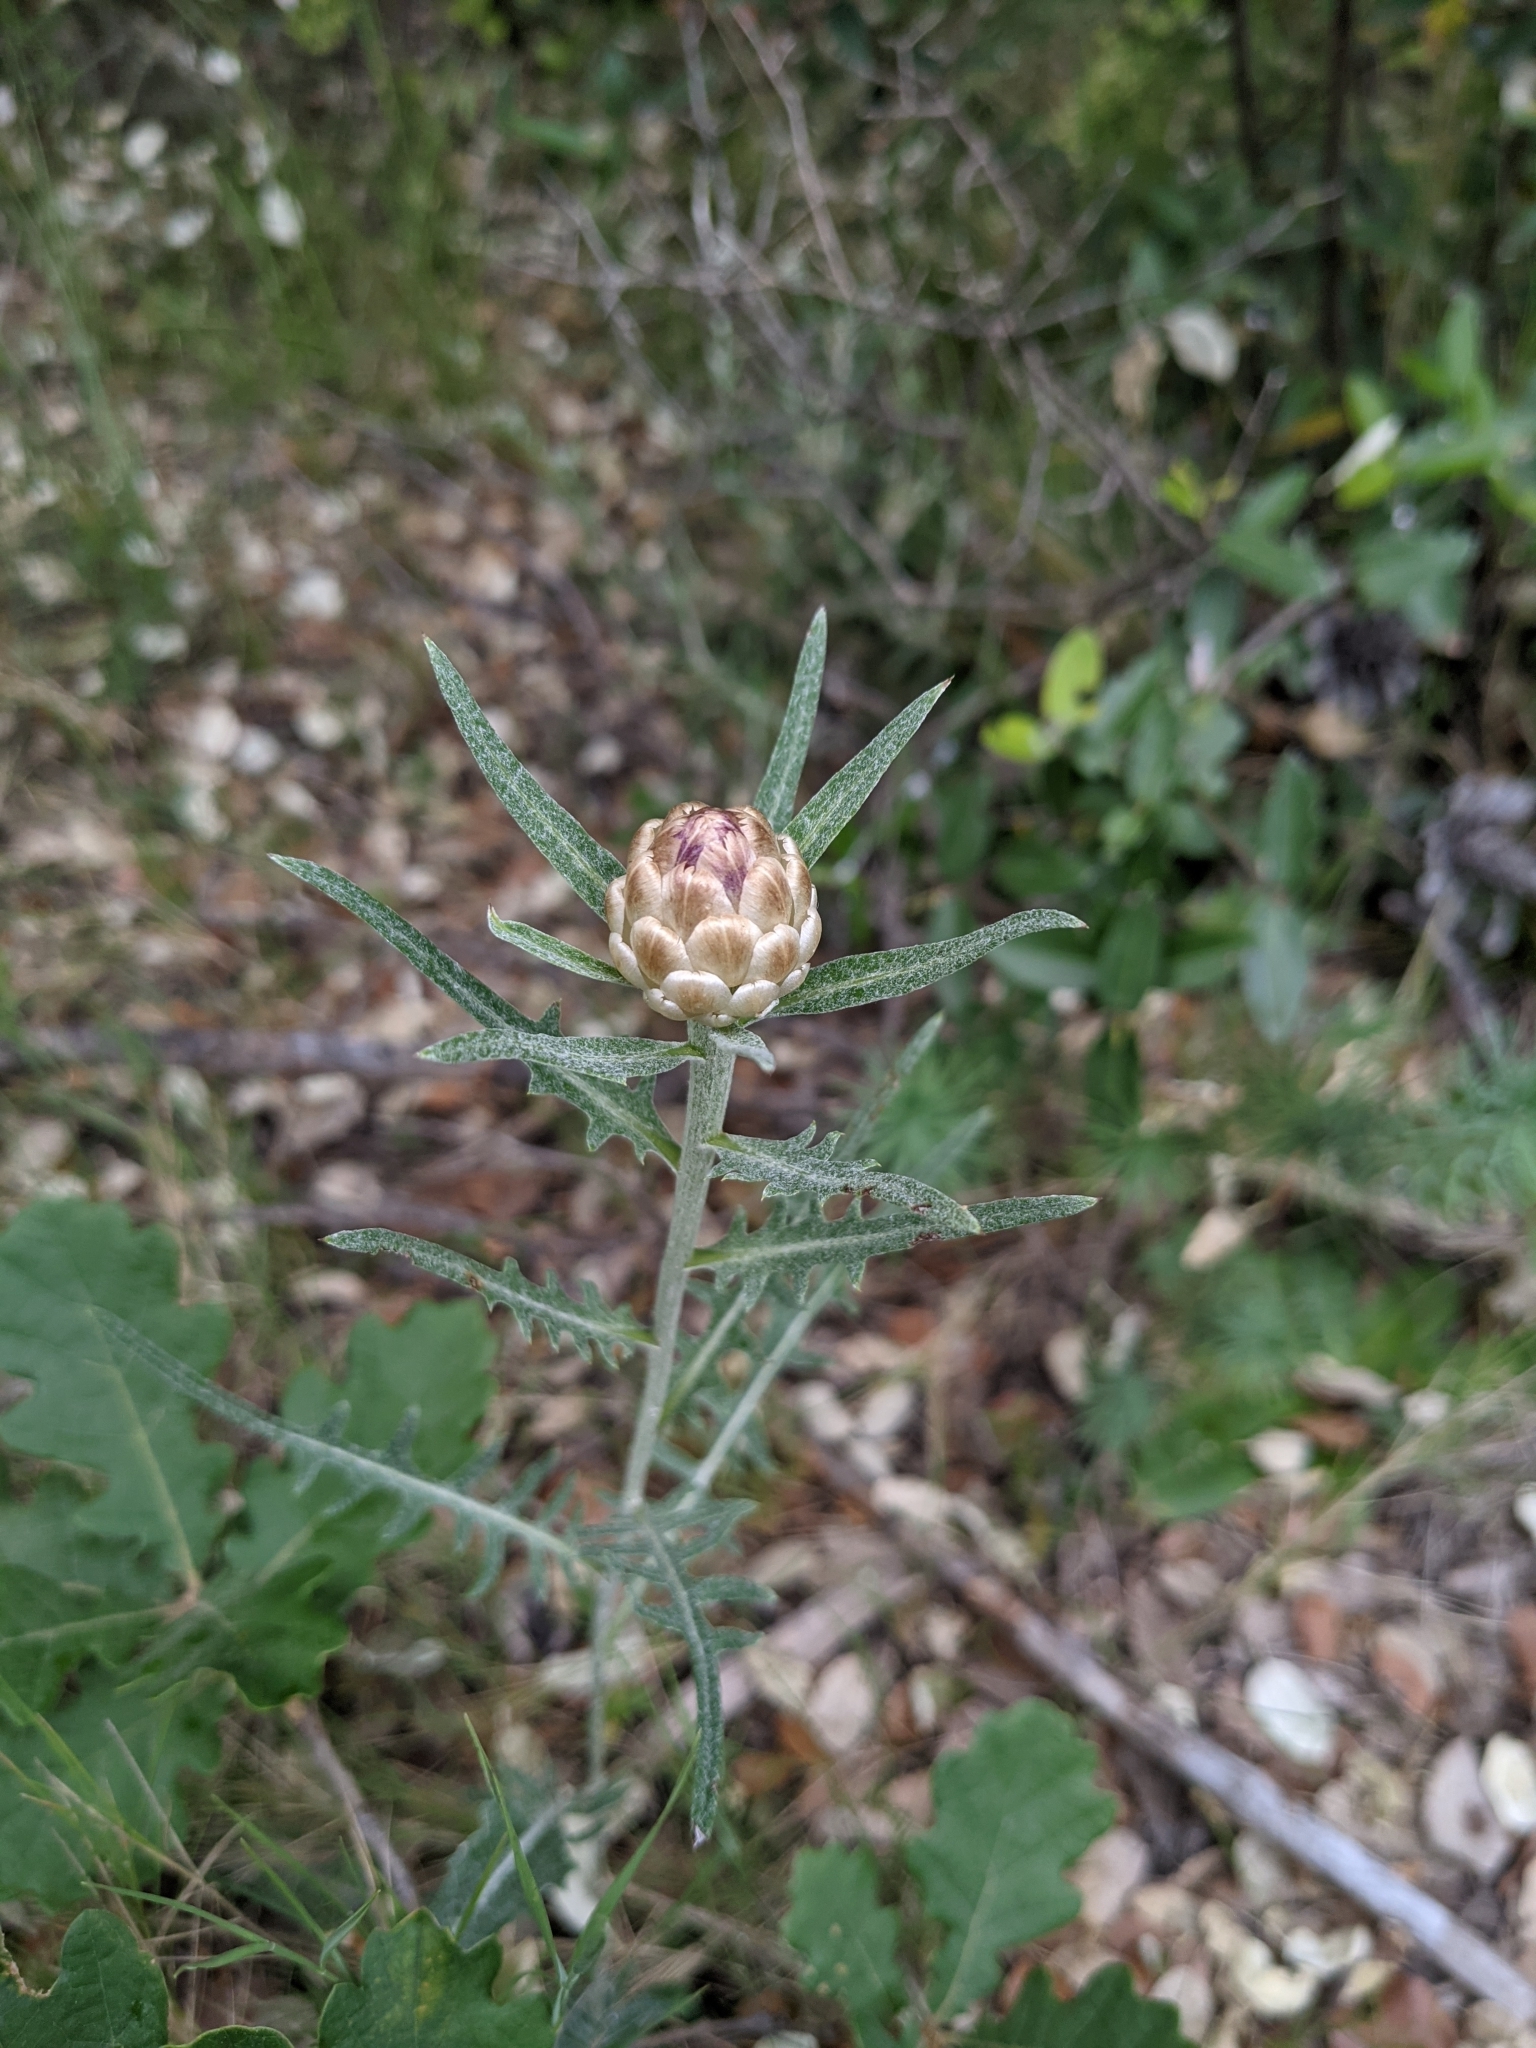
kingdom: Plantae
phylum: Tracheophyta
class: Magnoliopsida
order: Asterales
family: Asteraceae
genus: Leuzea
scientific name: Leuzea conifera
